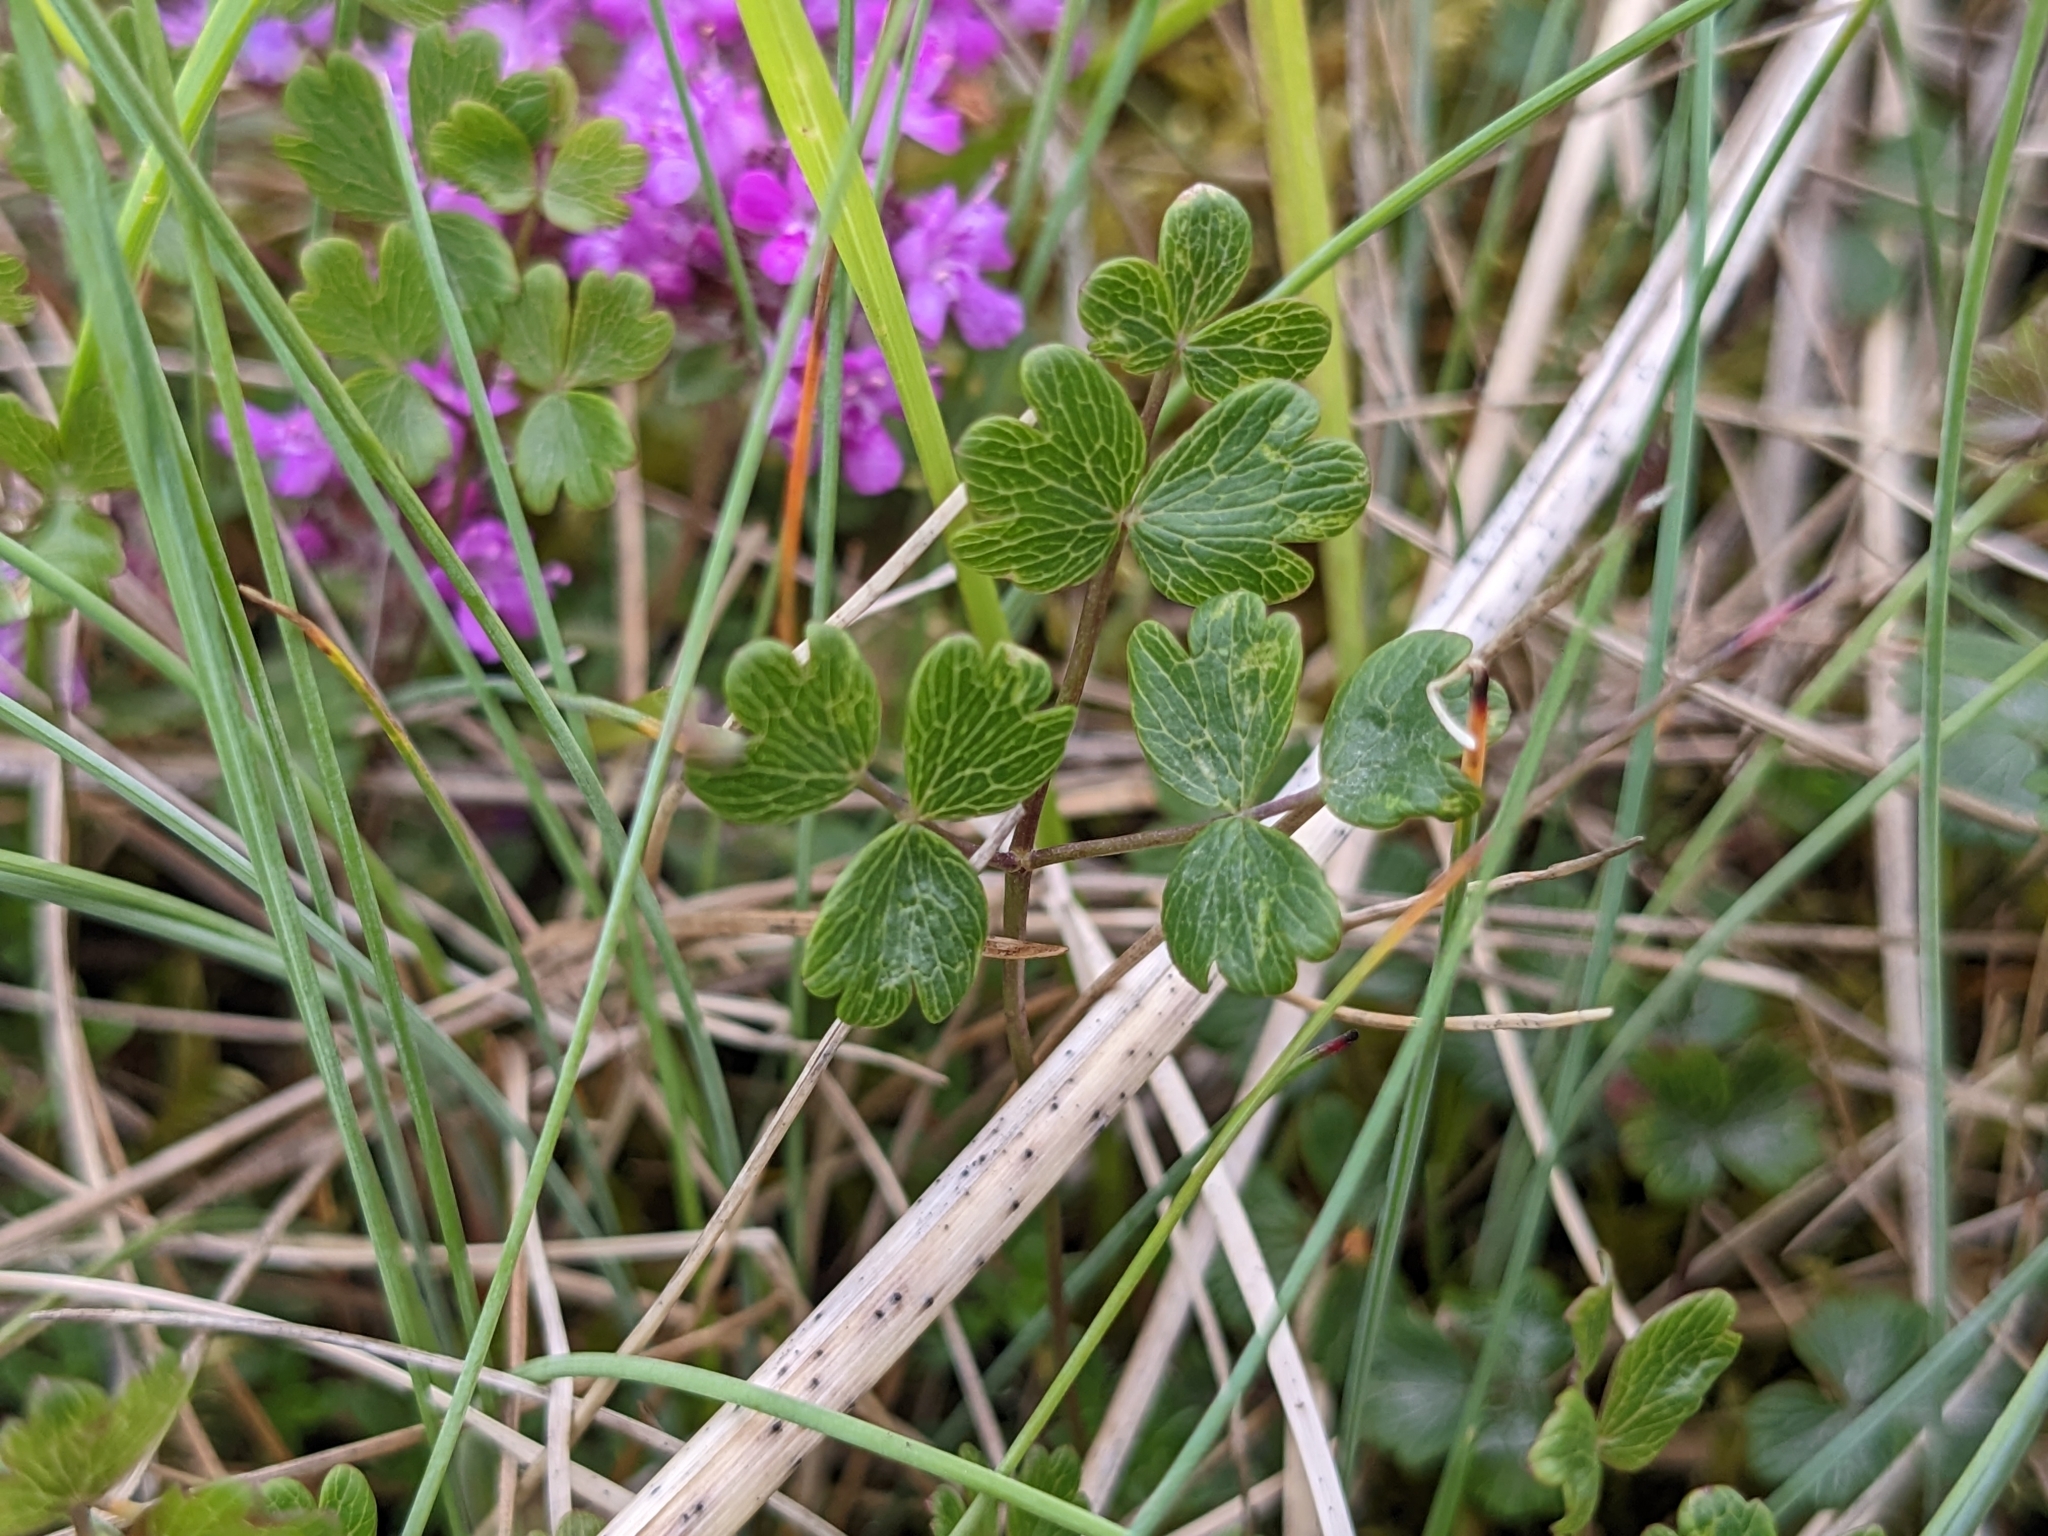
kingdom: Plantae
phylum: Tracheophyta
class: Magnoliopsida
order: Ranunculales
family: Ranunculaceae
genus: Thalictrum
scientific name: Thalictrum alpinum
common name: Alpine meadow-rue
